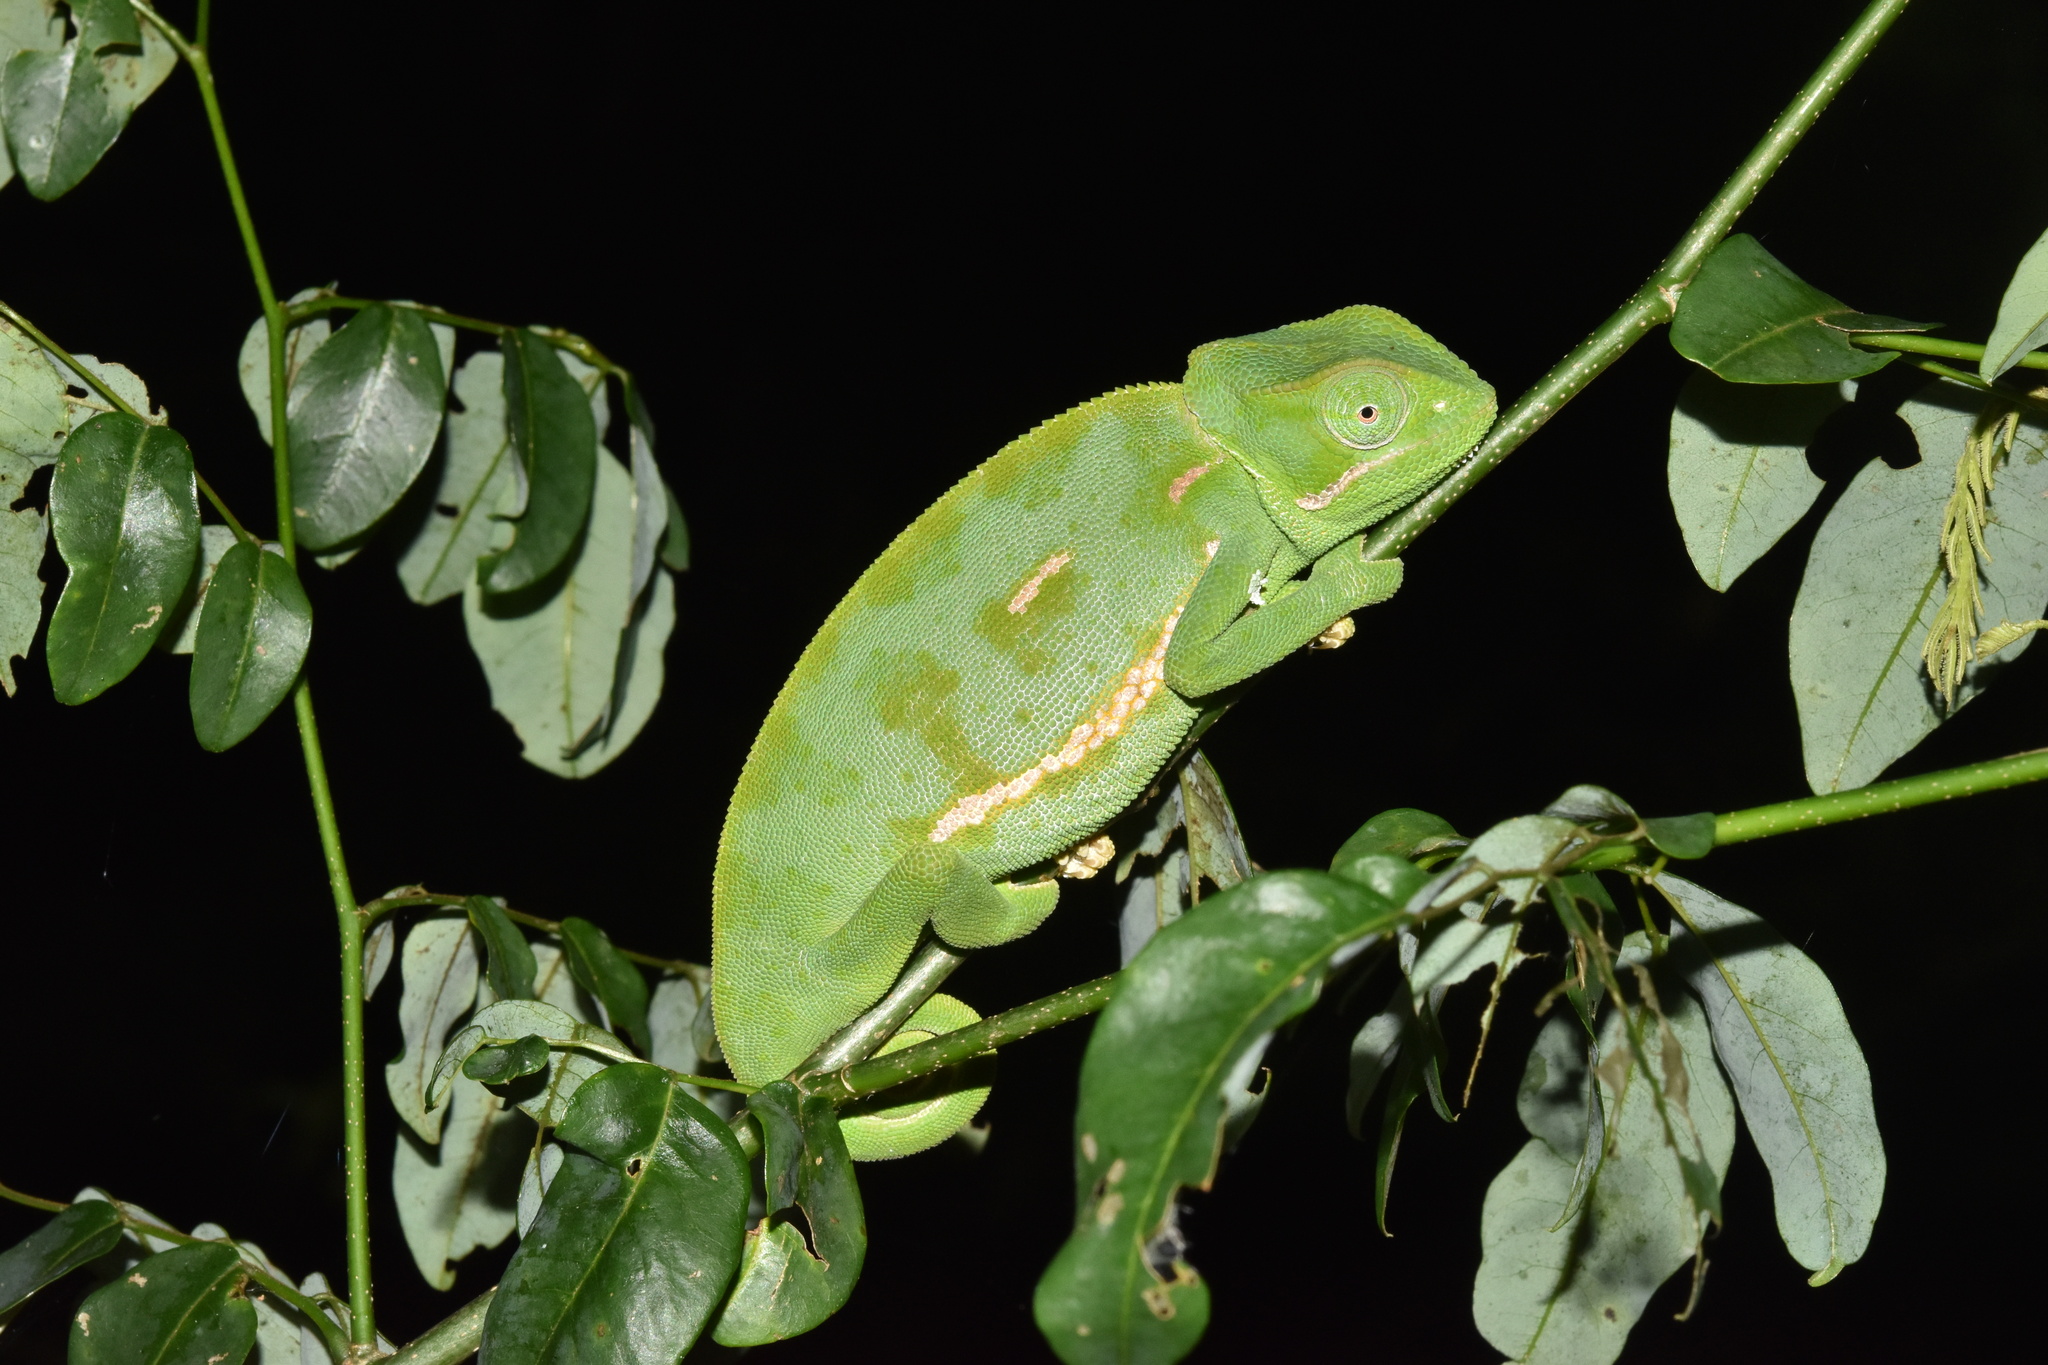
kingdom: Animalia
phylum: Chordata
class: Squamata
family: Chamaeleonidae
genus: Chamaeleo
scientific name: Chamaeleo dilepis
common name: Flapneck chameleon
